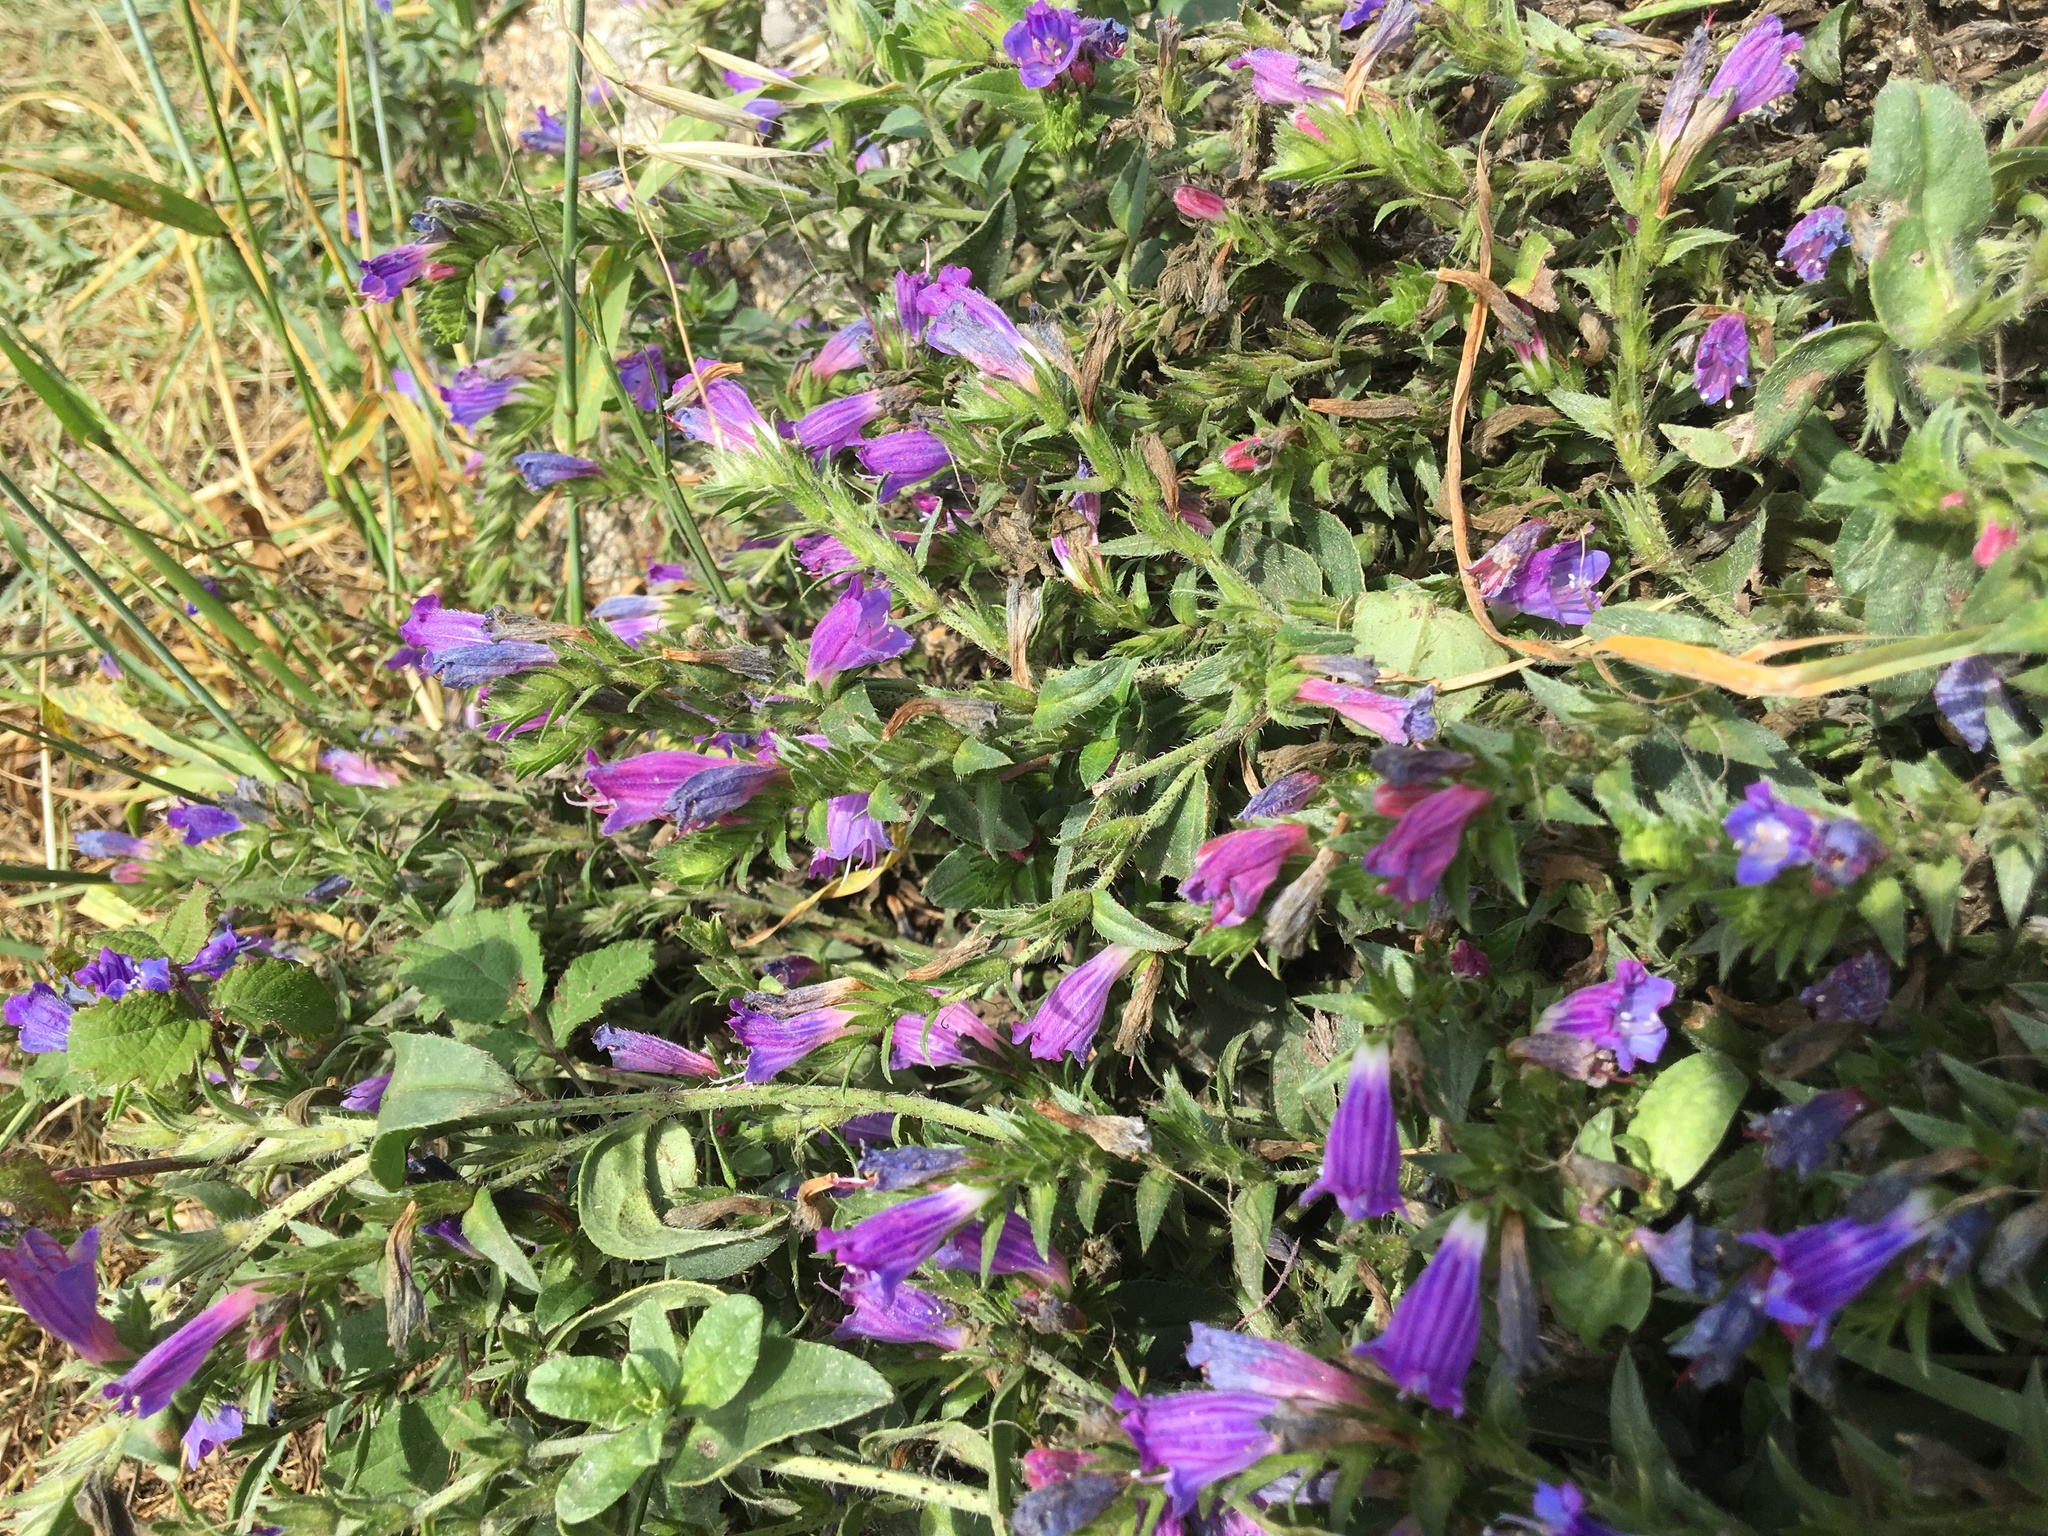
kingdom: Plantae
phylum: Tracheophyta
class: Magnoliopsida
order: Boraginales
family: Boraginaceae
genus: Echium
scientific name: Echium rosulatum
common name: Lax viper's-bugloss
